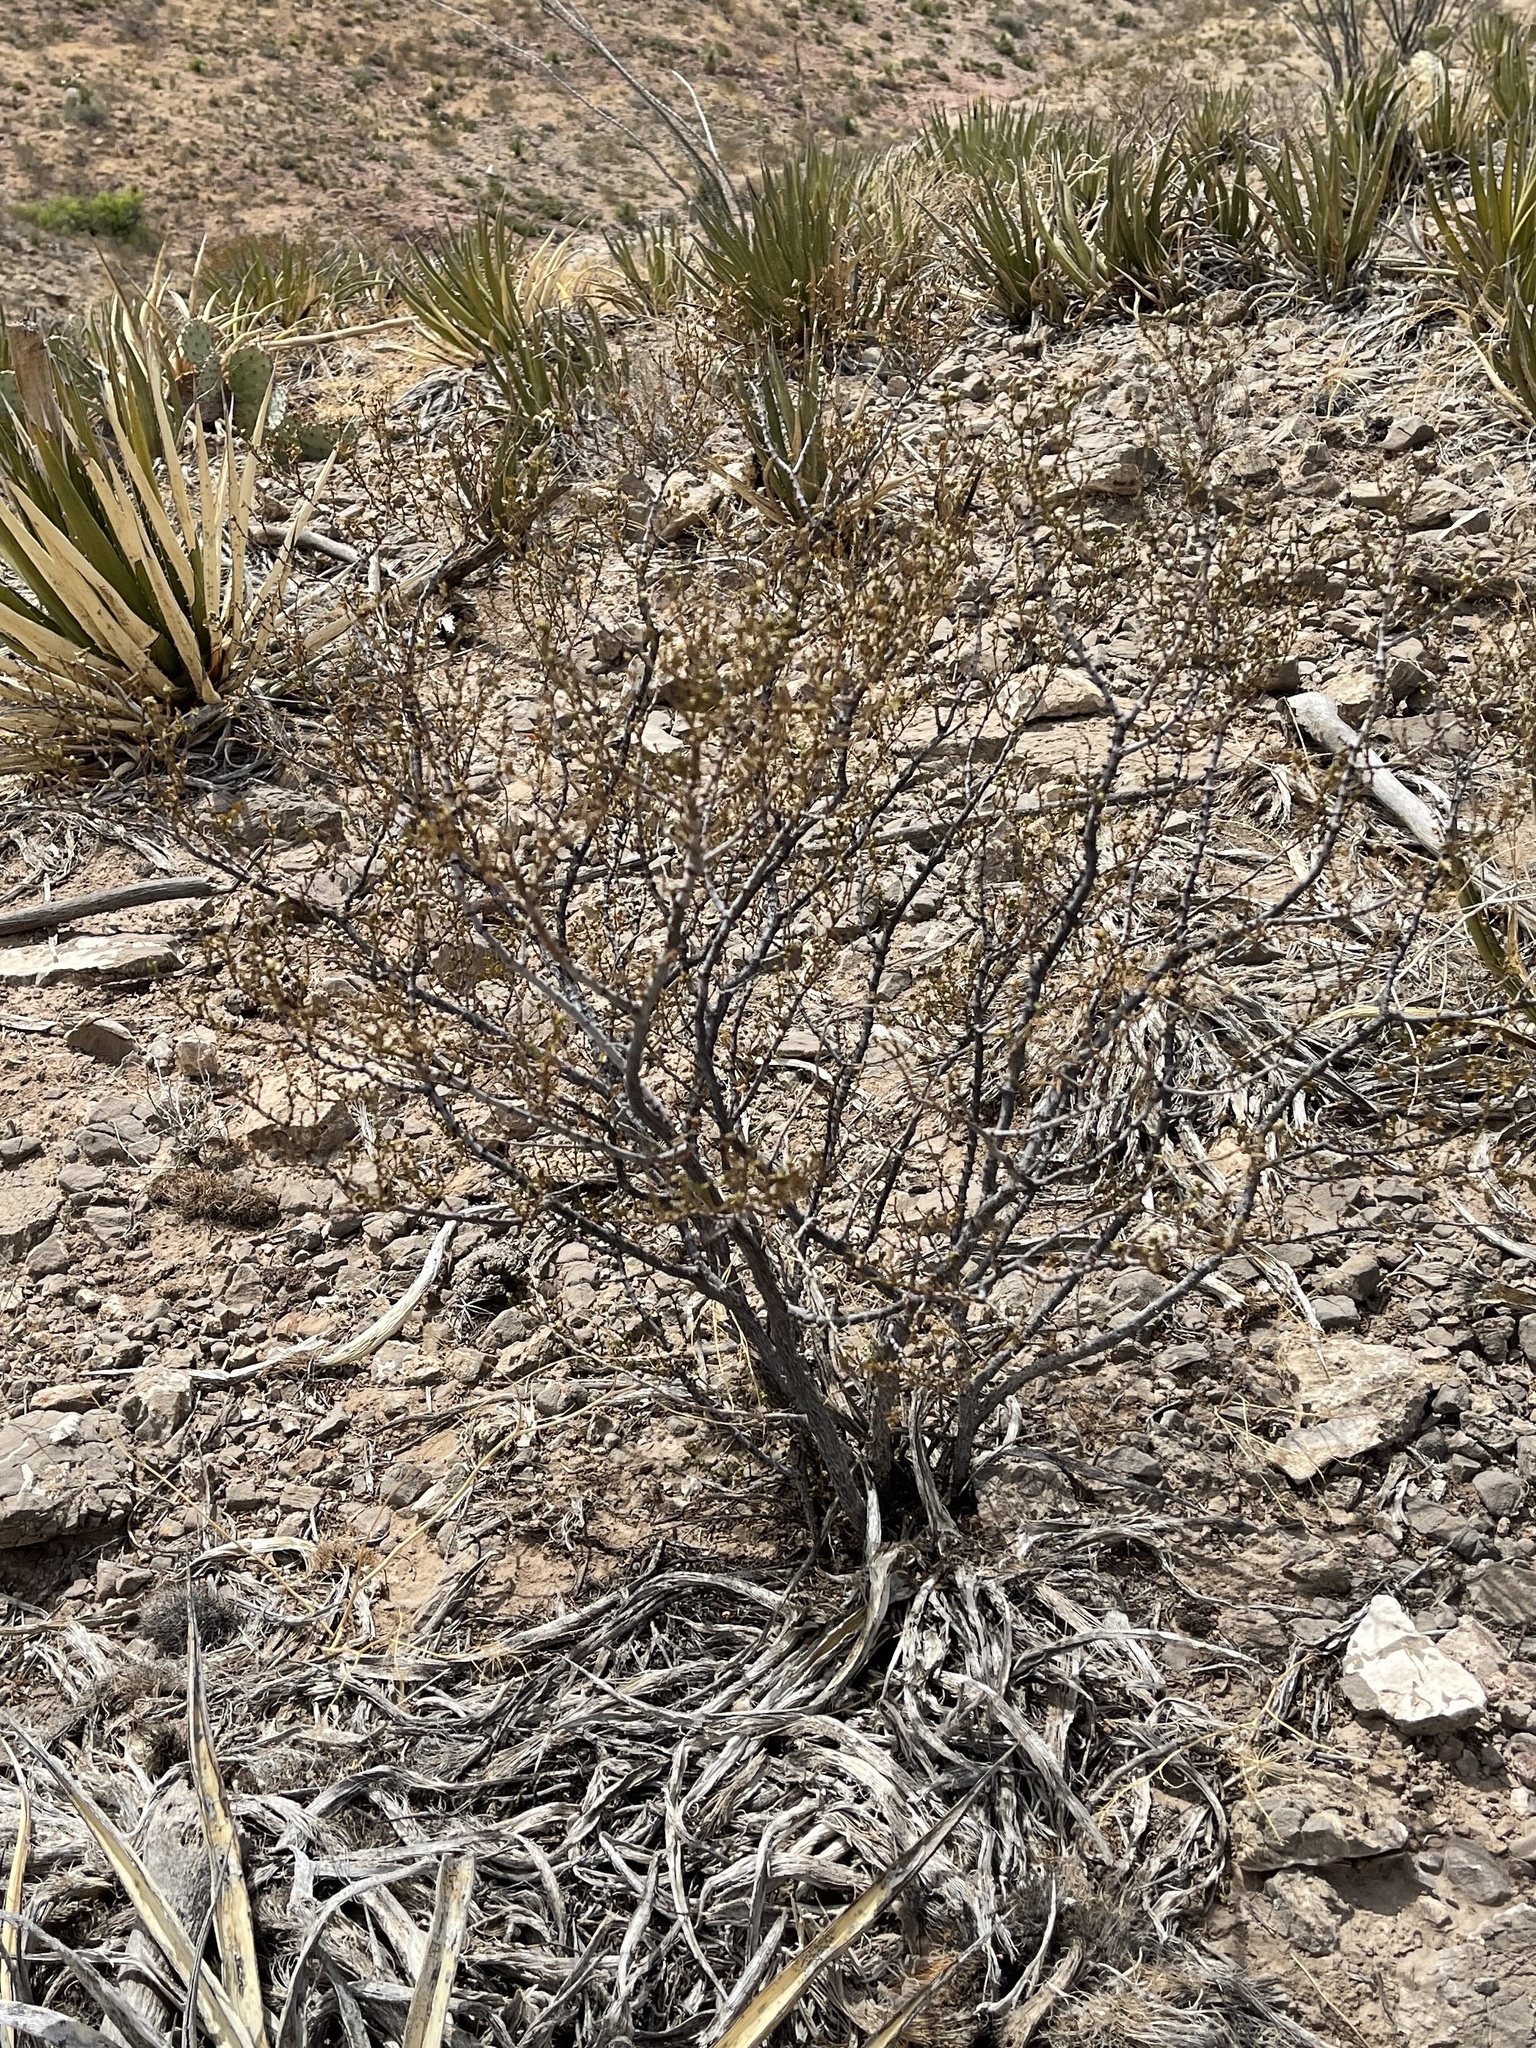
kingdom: Plantae
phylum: Tracheophyta
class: Magnoliopsida
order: Zygophyllales
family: Zygophyllaceae
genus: Larrea
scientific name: Larrea tridentata
